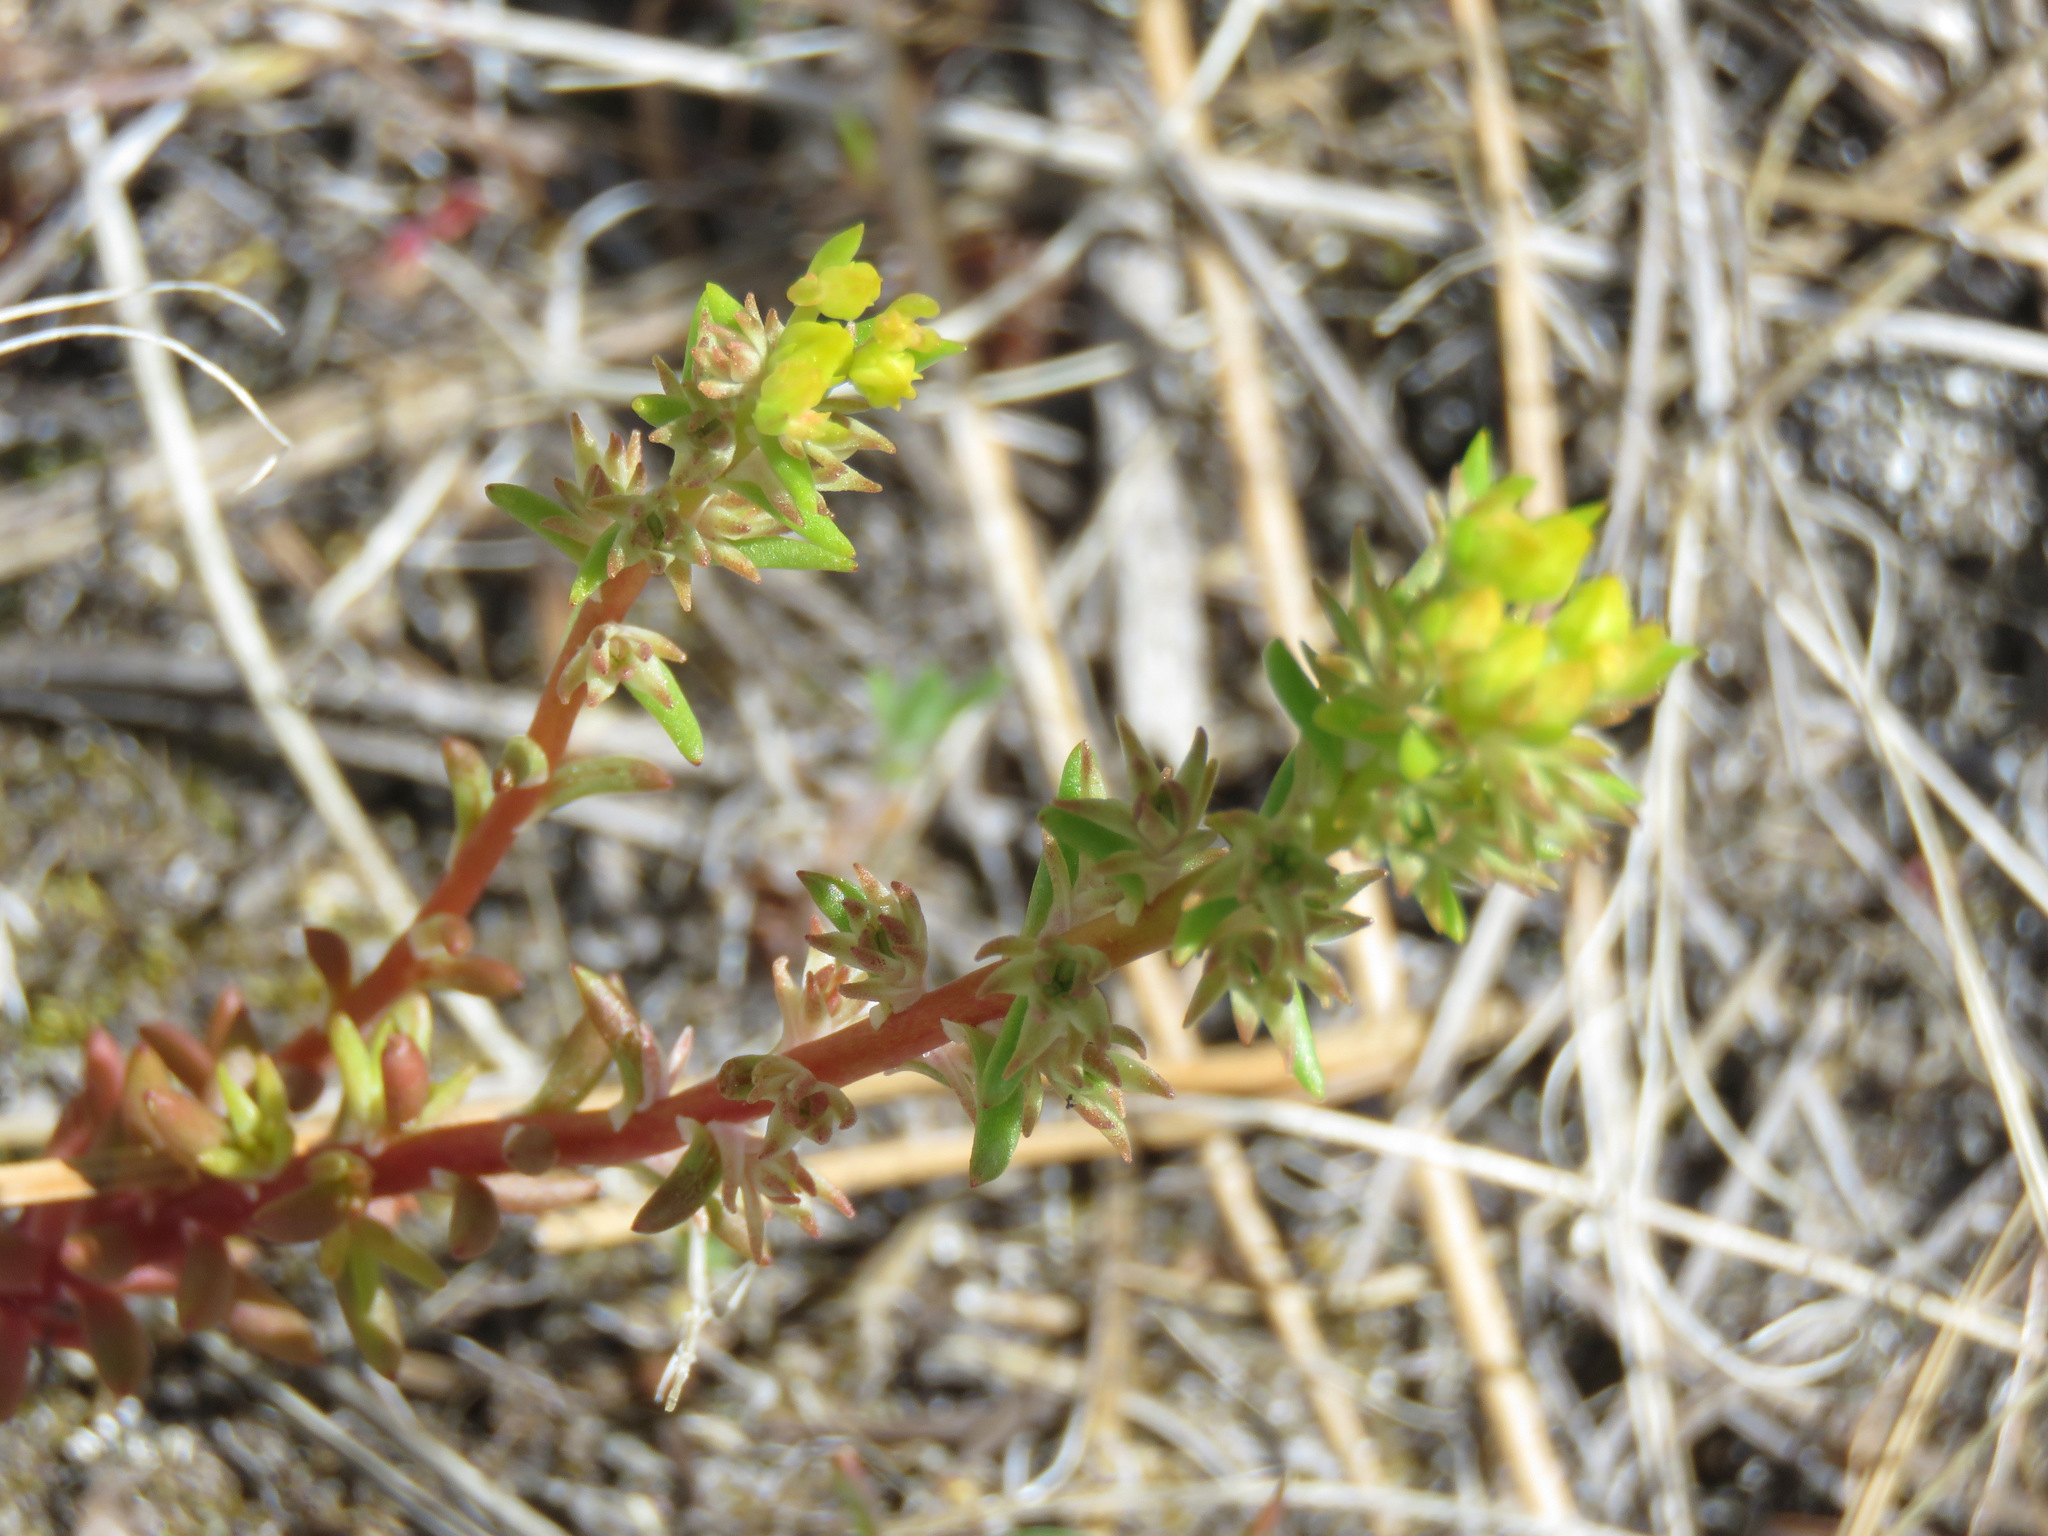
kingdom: Plantae
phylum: Tracheophyta
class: Magnoliopsida
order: Saxifragales
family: Crassulaceae
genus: Sedum
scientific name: Sedum stenopetalum
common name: Narrow-petaled stonecrop
